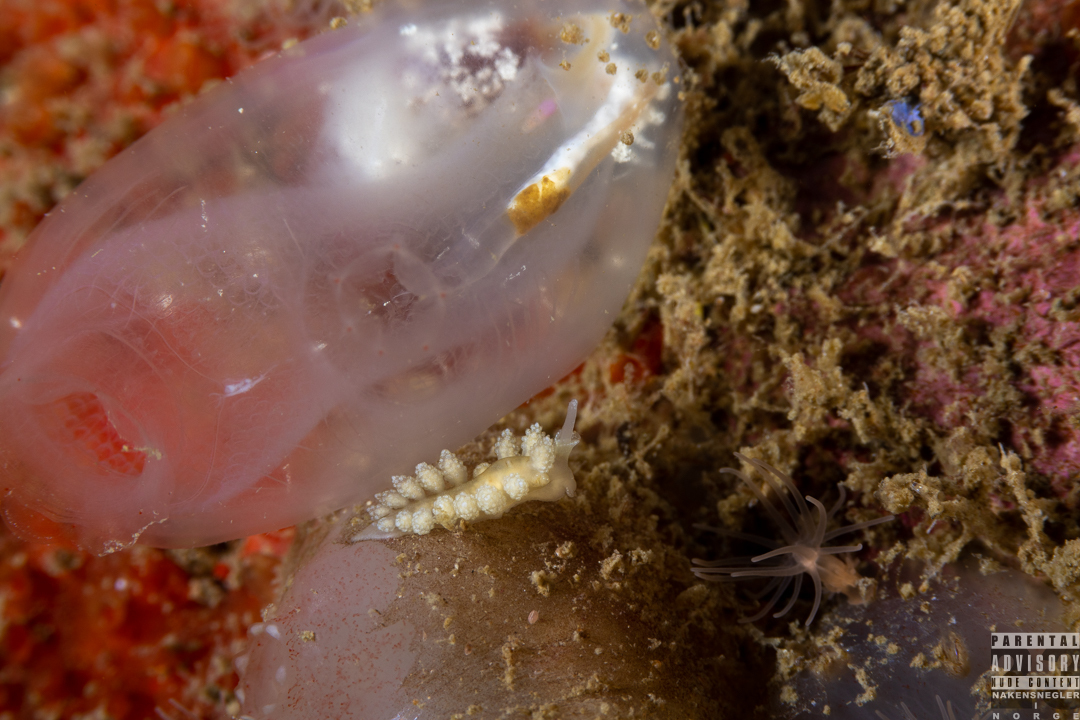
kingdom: Animalia
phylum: Mollusca
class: Gastropoda
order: Nudibranchia
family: Dotidae
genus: Doto
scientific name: Doto fragilis
